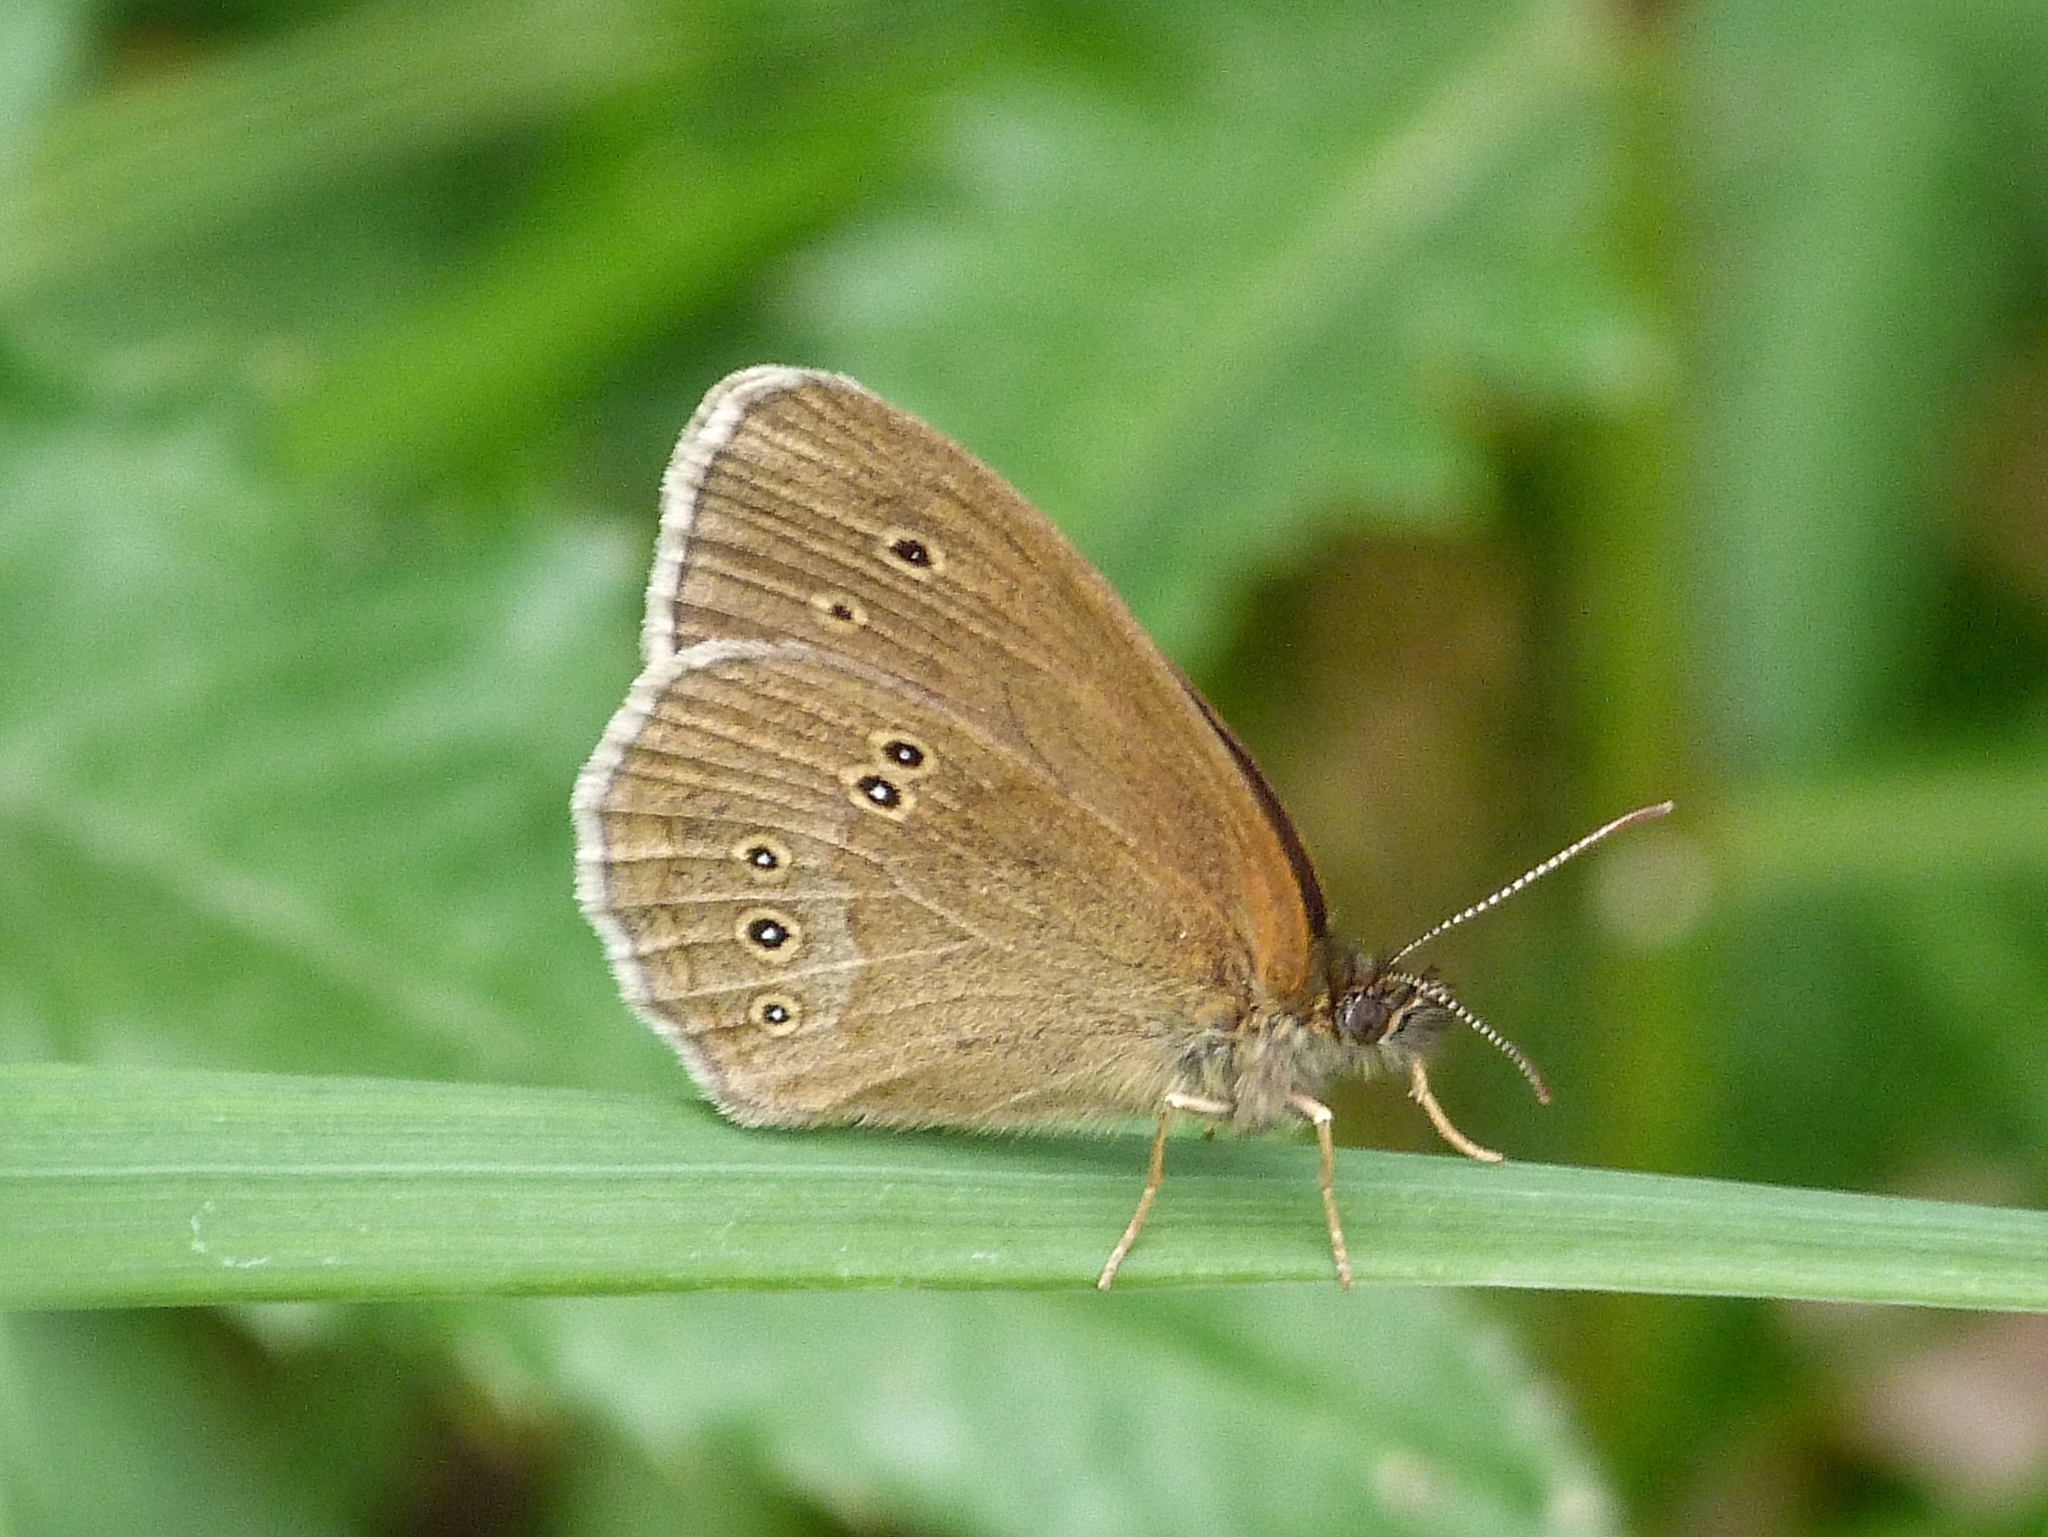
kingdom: Animalia
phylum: Arthropoda
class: Insecta
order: Lepidoptera
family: Nymphalidae
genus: Aphantopus
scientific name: Aphantopus hyperantus
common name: Ringlet
